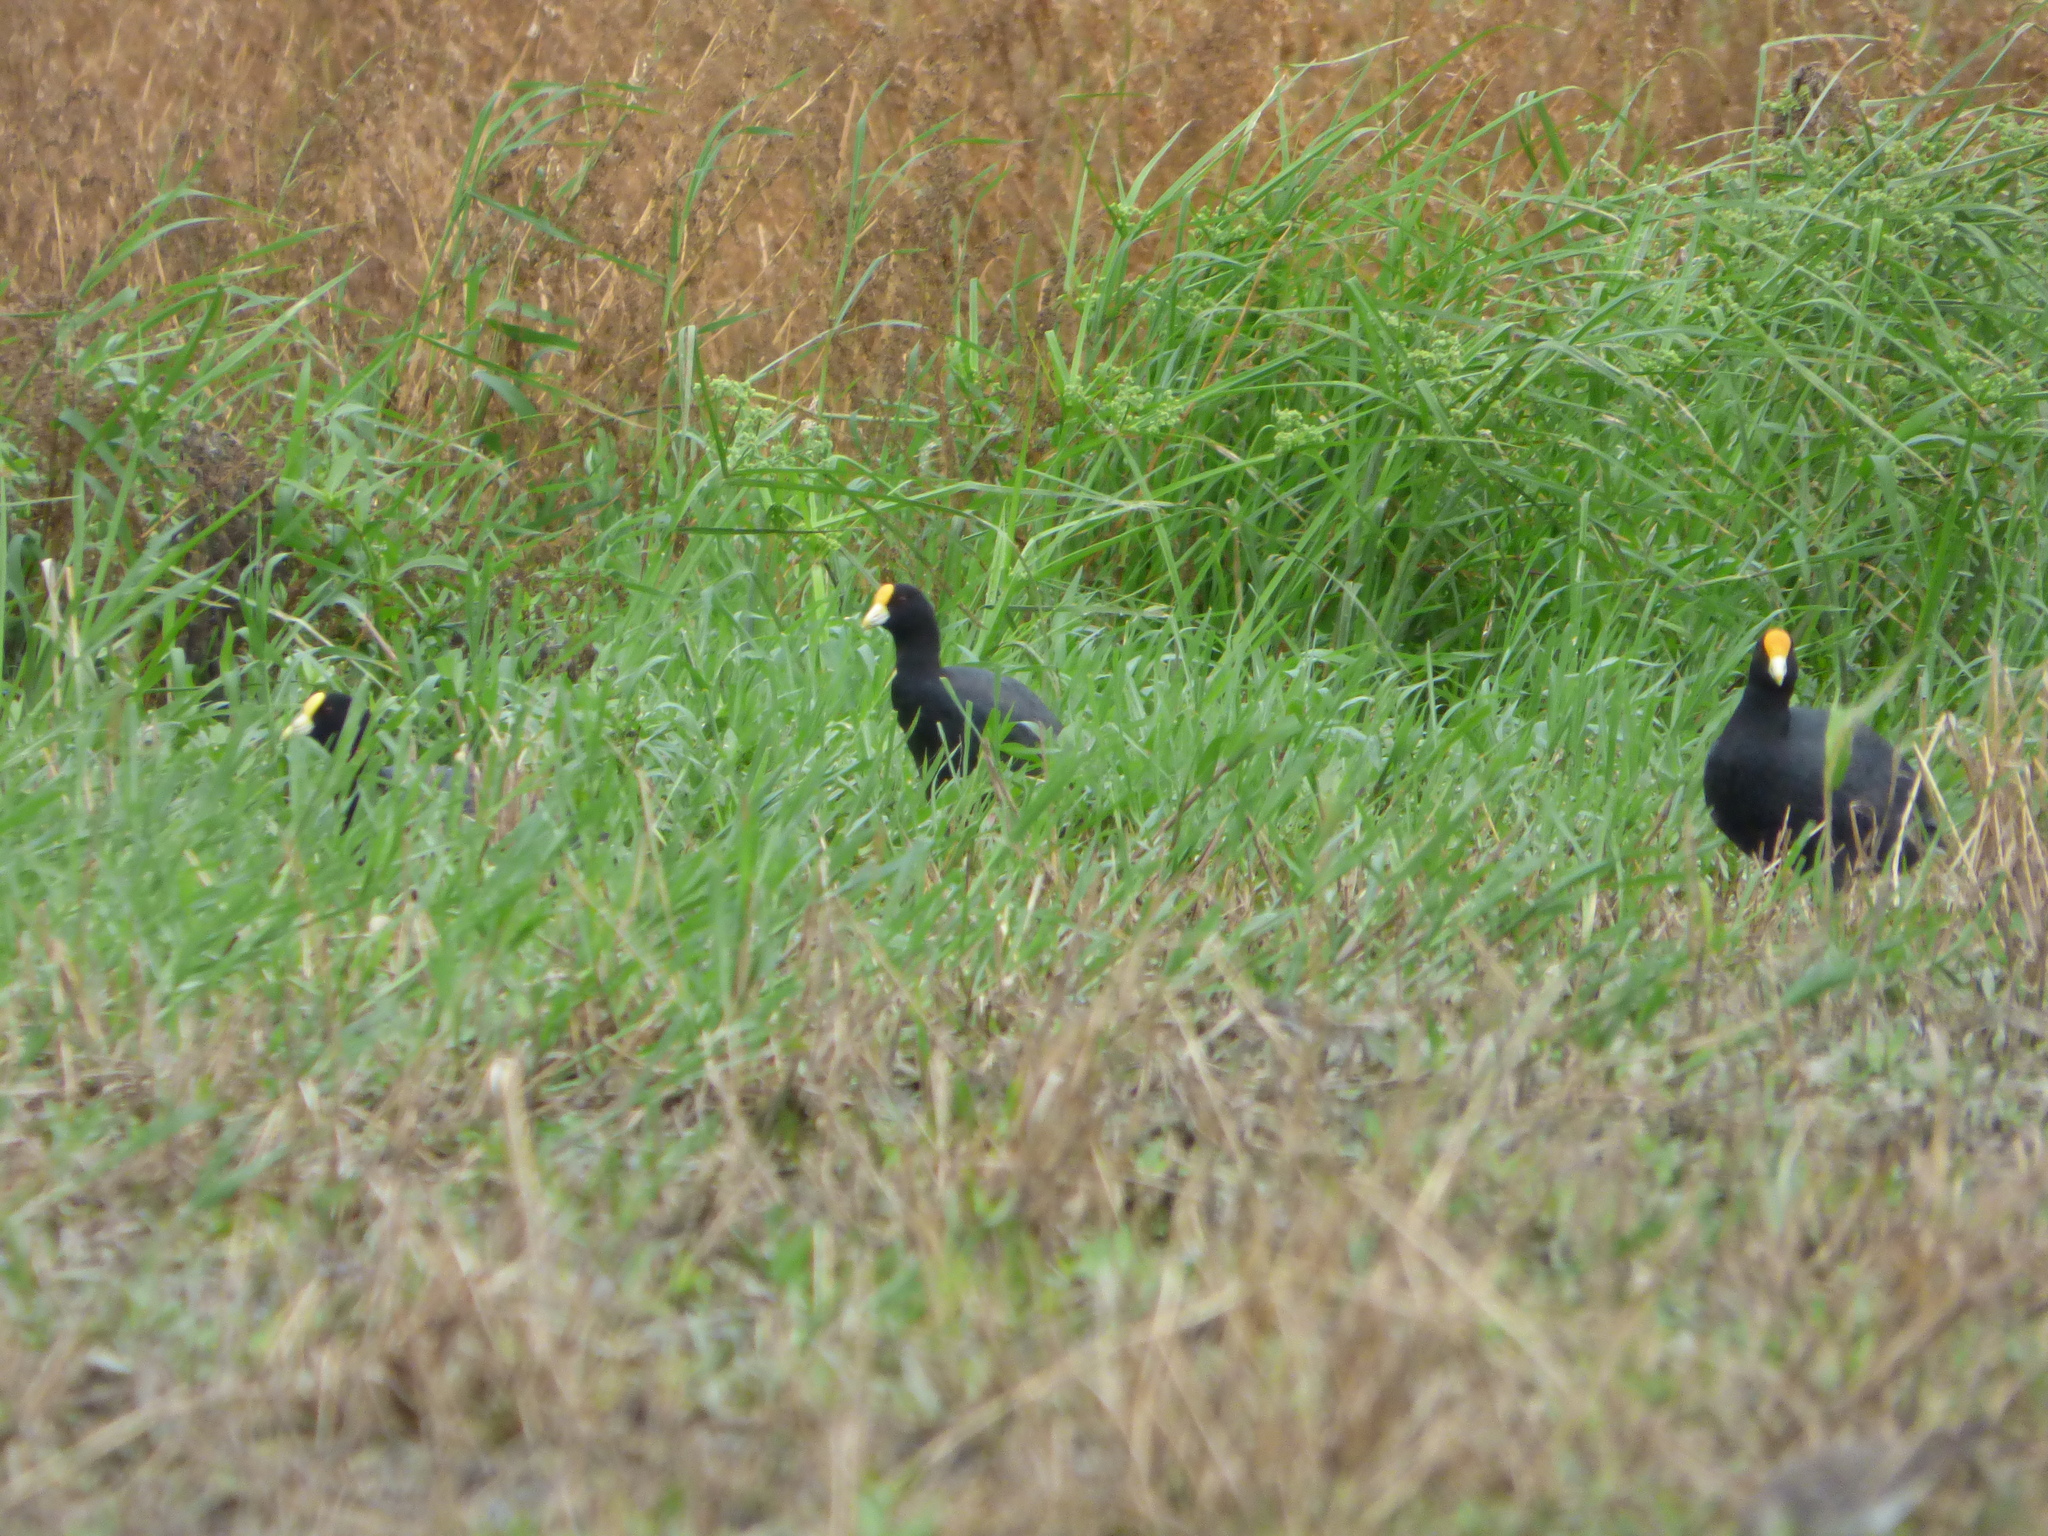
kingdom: Animalia
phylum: Chordata
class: Aves
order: Gruiformes
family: Rallidae
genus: Fulica
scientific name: Fulica leucoptera
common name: White-winged coot
